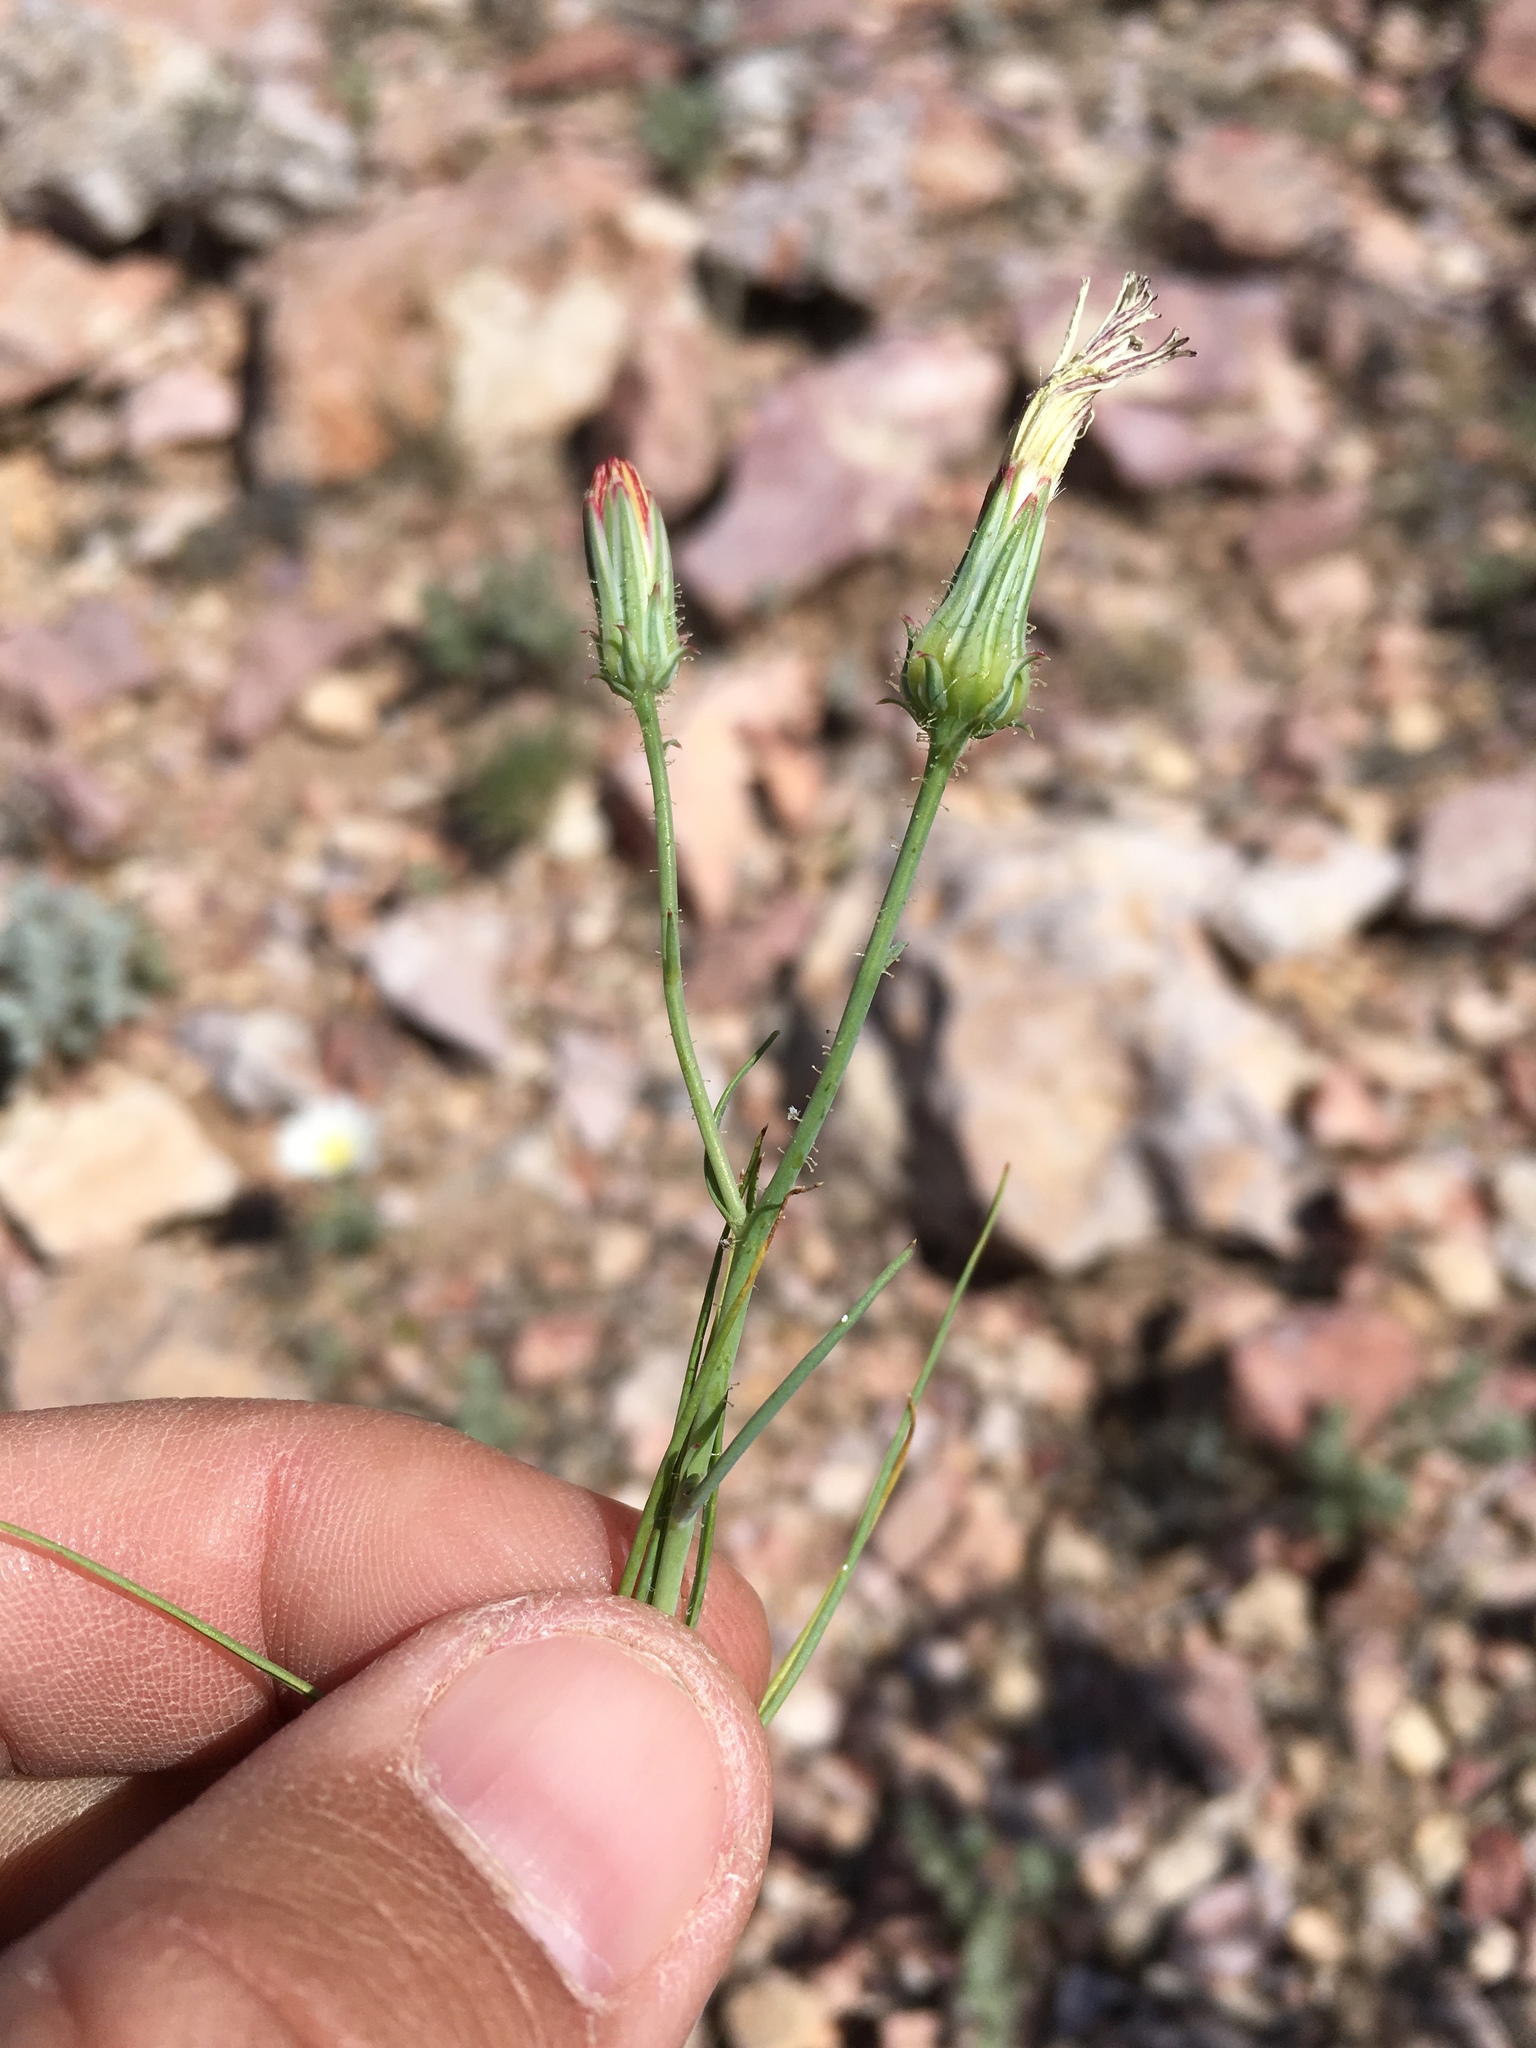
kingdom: Plantae
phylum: Tracheophyta
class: Magnoliopsida
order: Asterales
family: Asteraceae
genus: Calycoseris
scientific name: Calycoseris wrightii
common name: White tackstem
